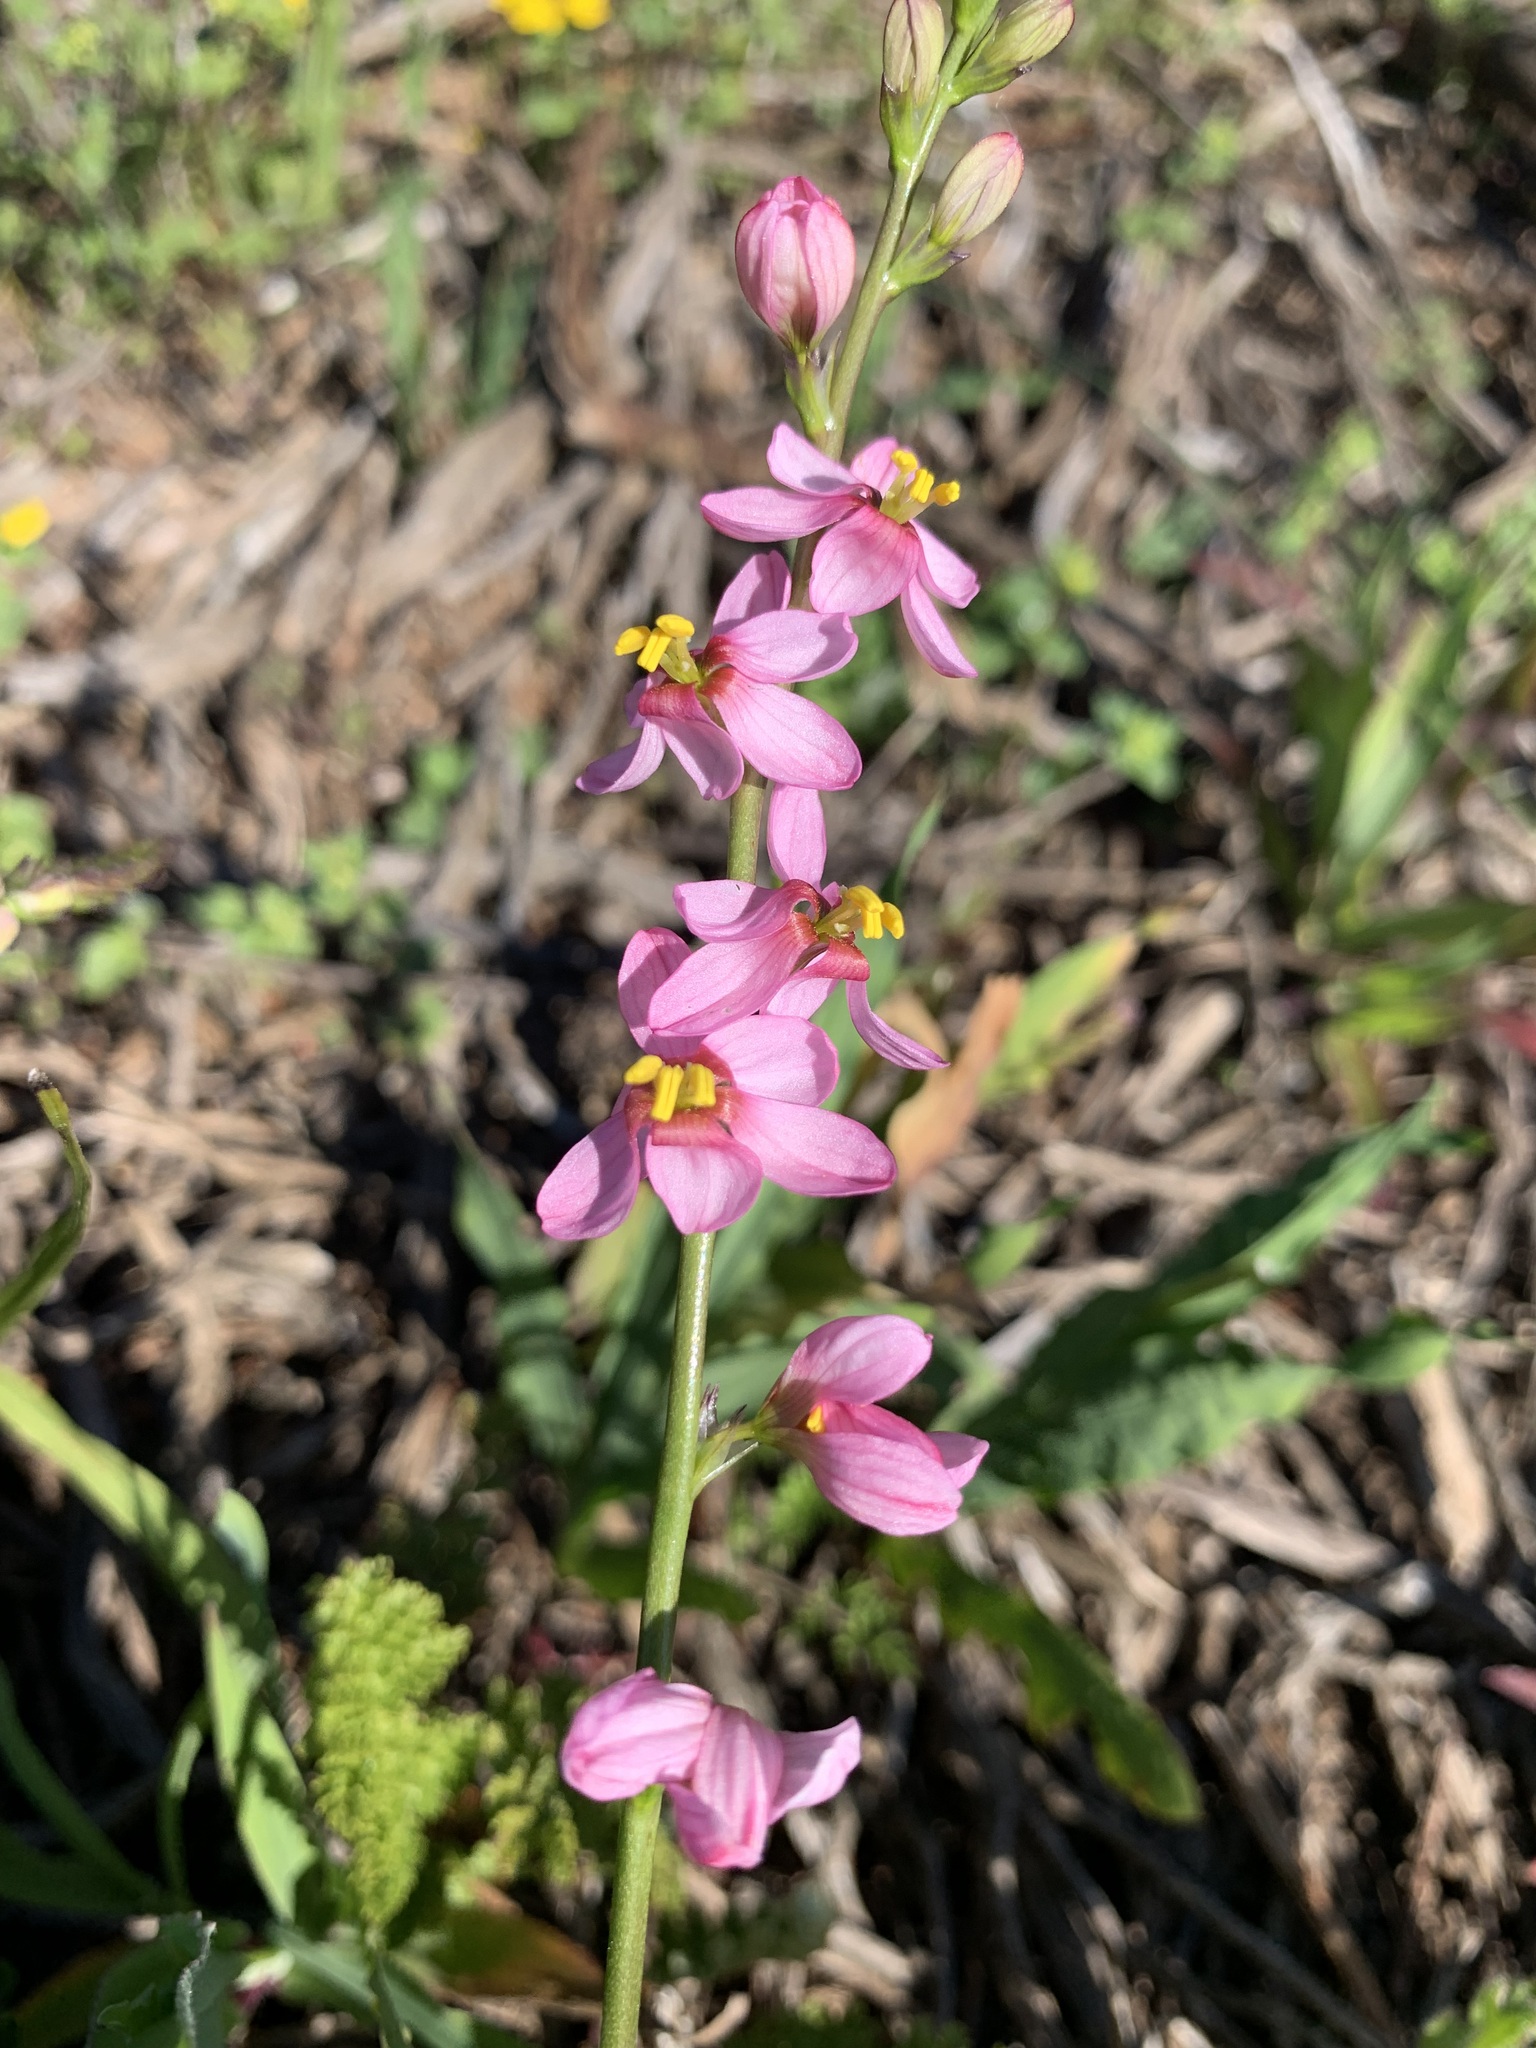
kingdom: Plantae
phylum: Tracheophyta
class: Liliopsida
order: Asparagales
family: Iridaceae
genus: Ixia
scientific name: Ixia scillaris
